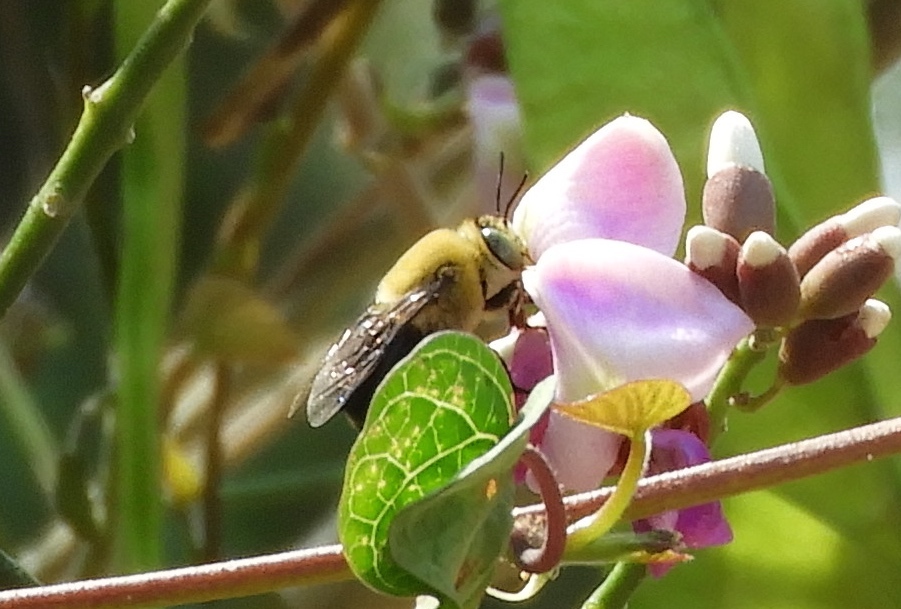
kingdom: Animalia
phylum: Arthropoda
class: Insecta
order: Hymenoptera
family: Apidae
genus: Centris
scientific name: Centris
